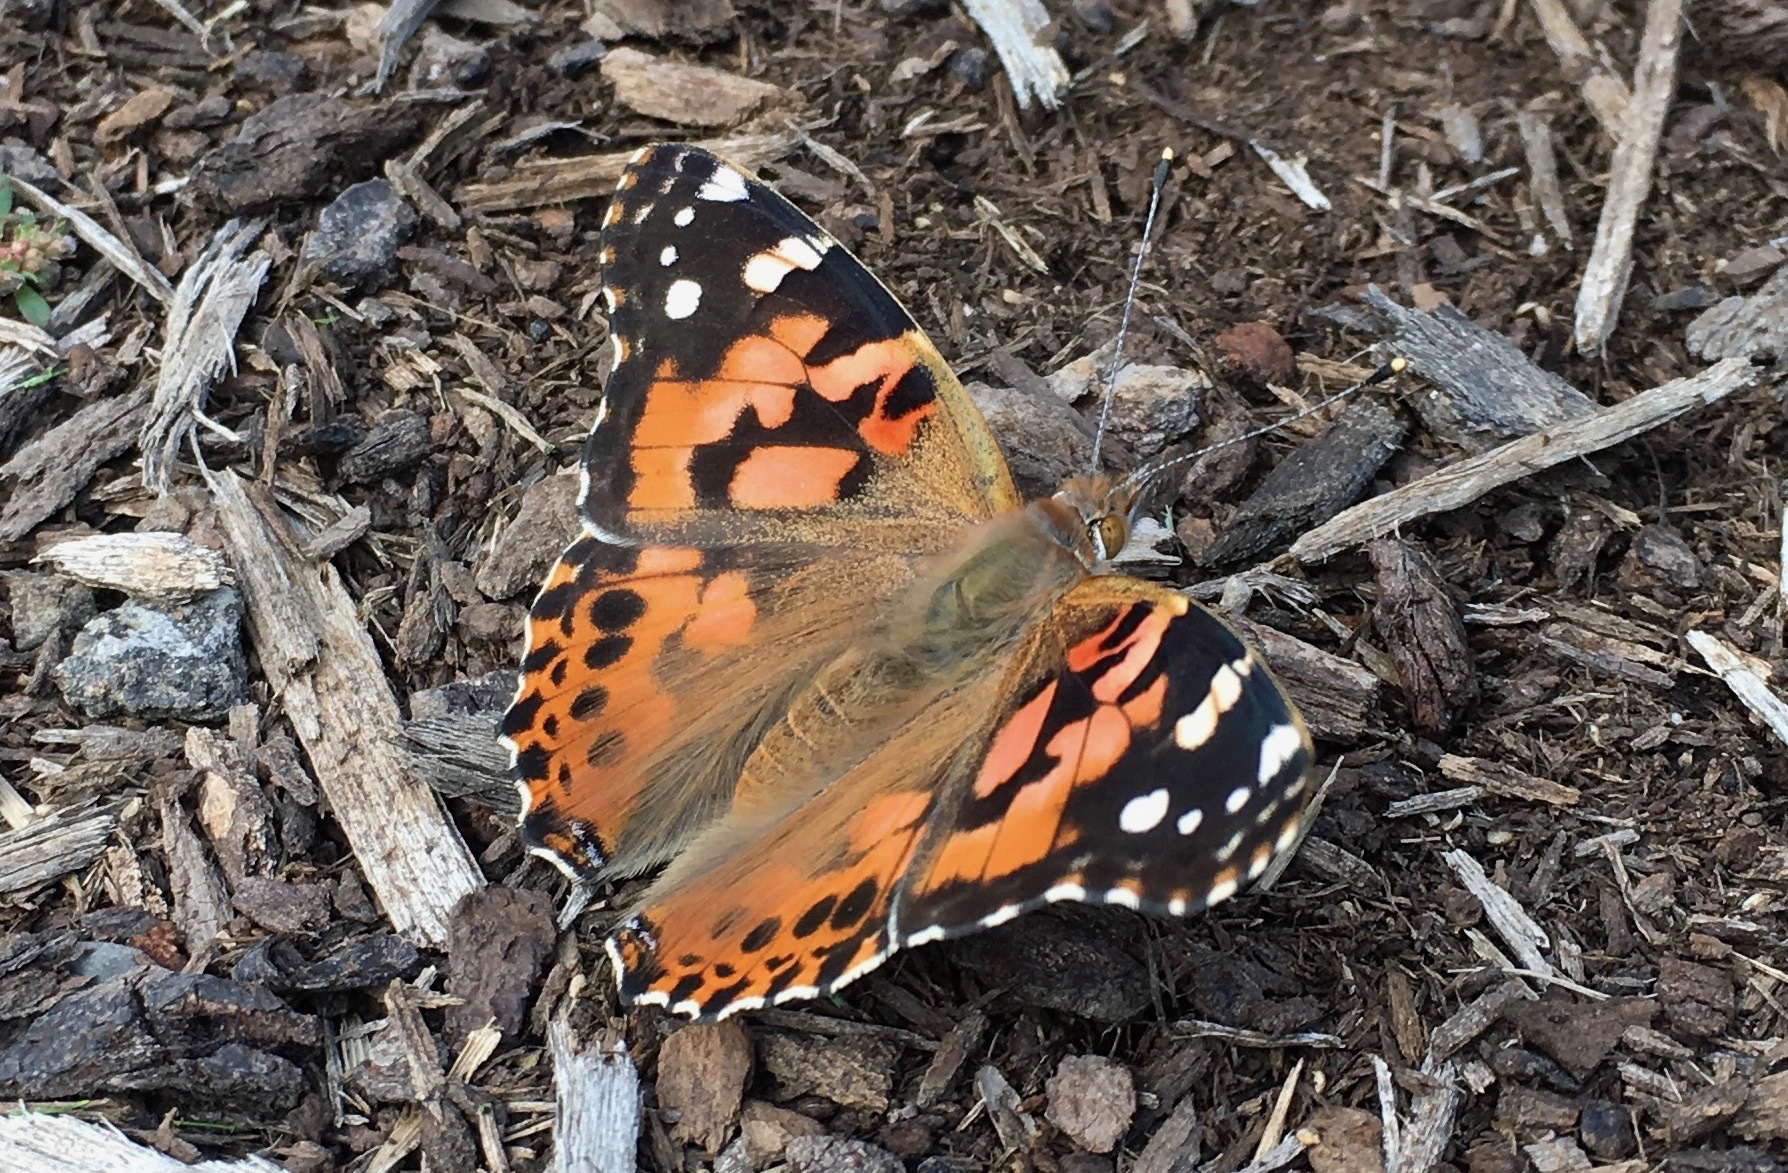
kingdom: Animalia
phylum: Arthropoda
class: Insecta
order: Lepidoptera
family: Nymphalidae
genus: Vanessa
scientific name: Vanessa cardui
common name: Painted lady
